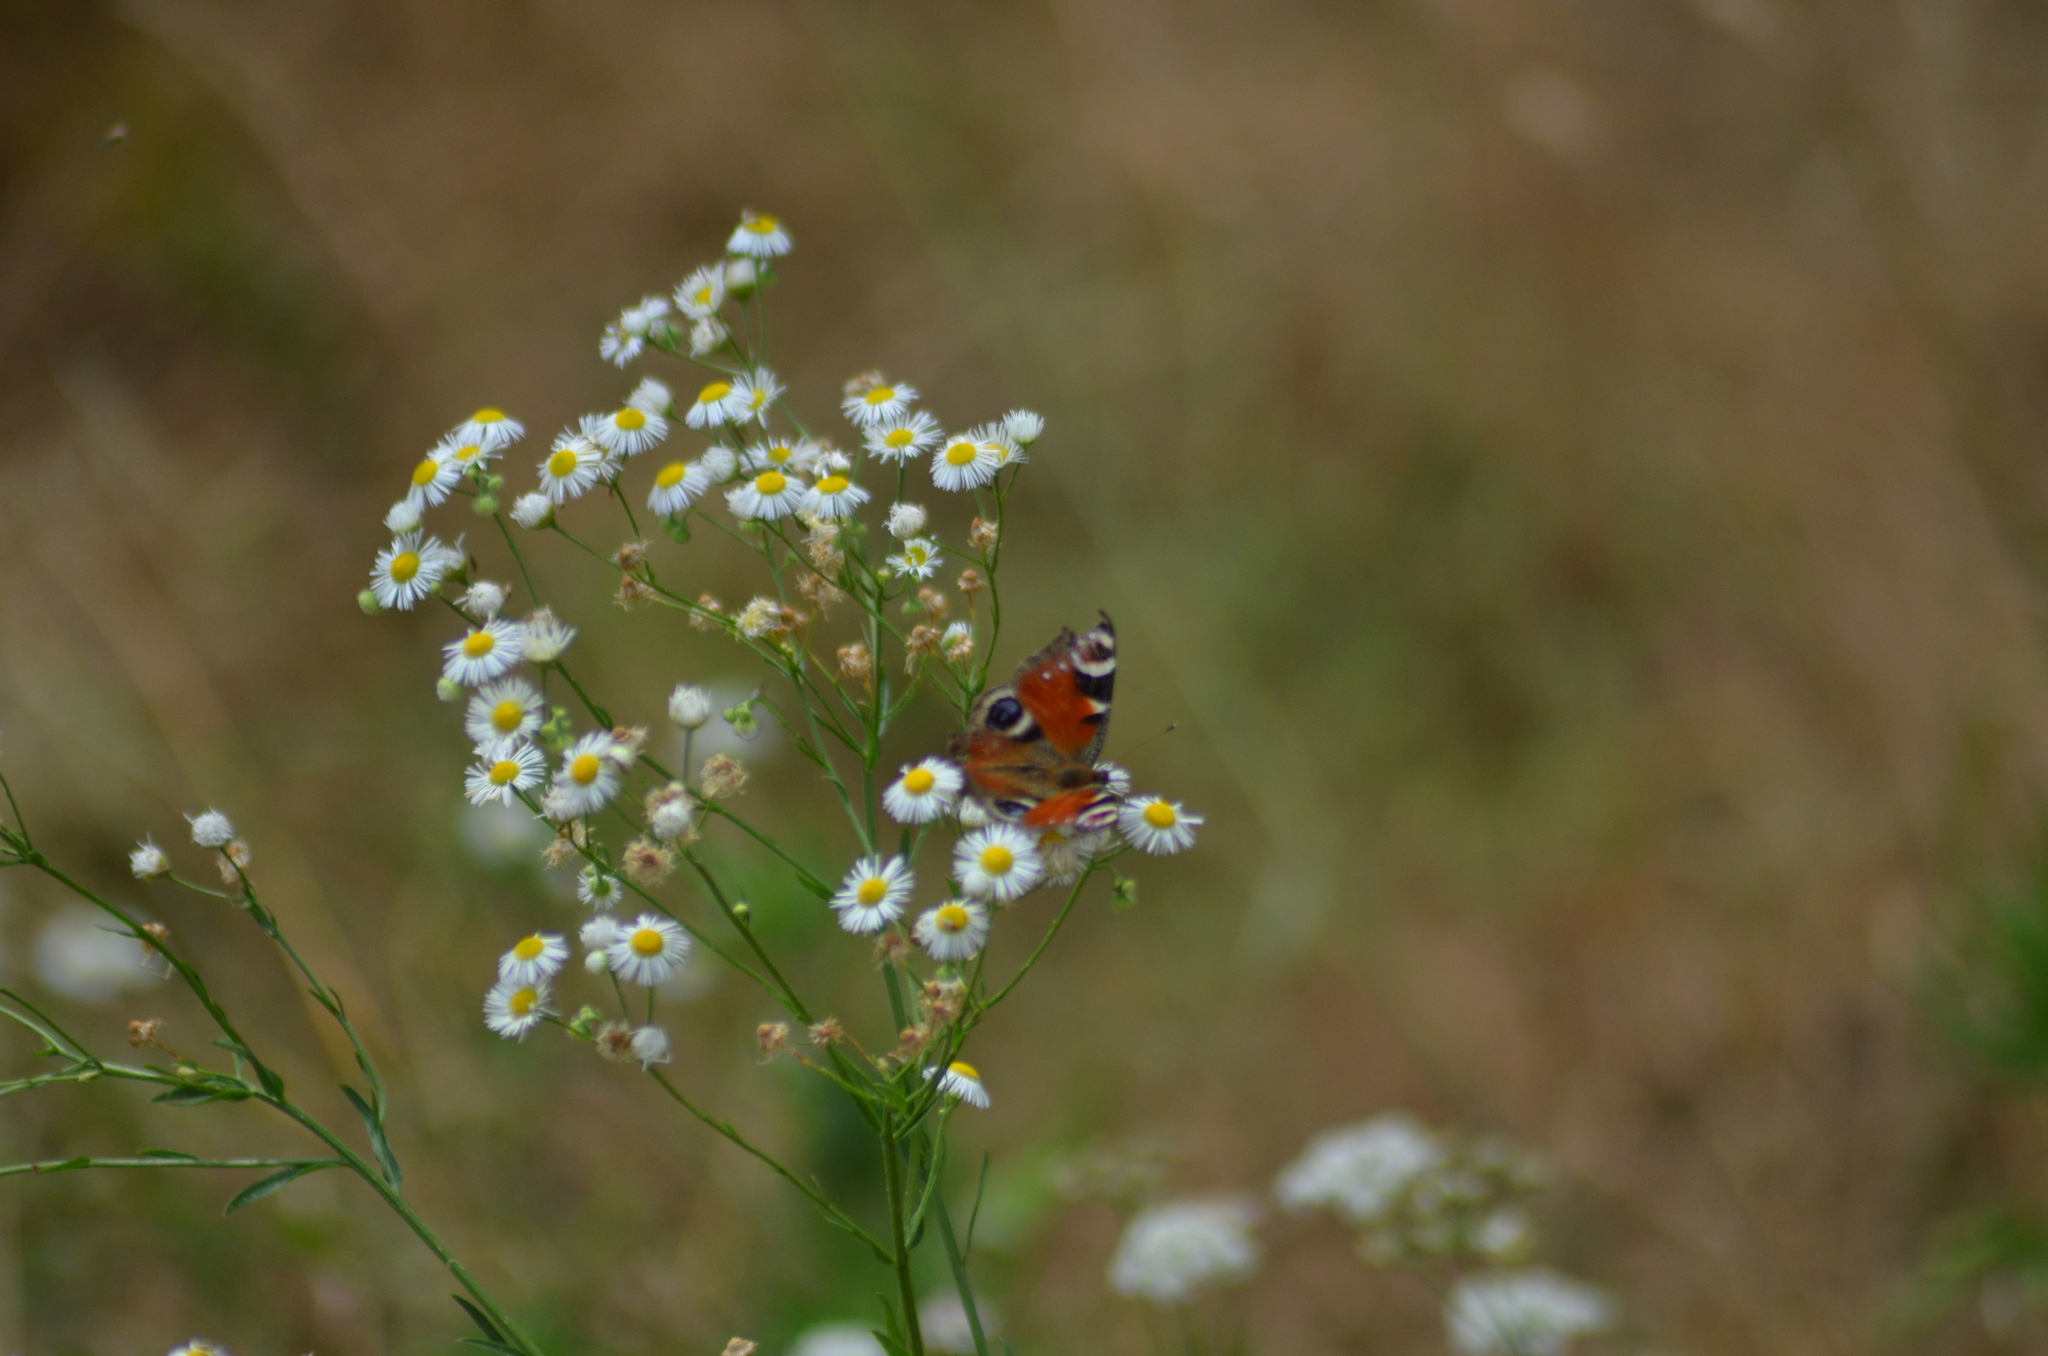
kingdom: Animalia
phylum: Arthropoda
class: Insecta
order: Lepidoptera
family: Nymphalidae
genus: Aglais
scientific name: Aglais io
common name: Peacock
